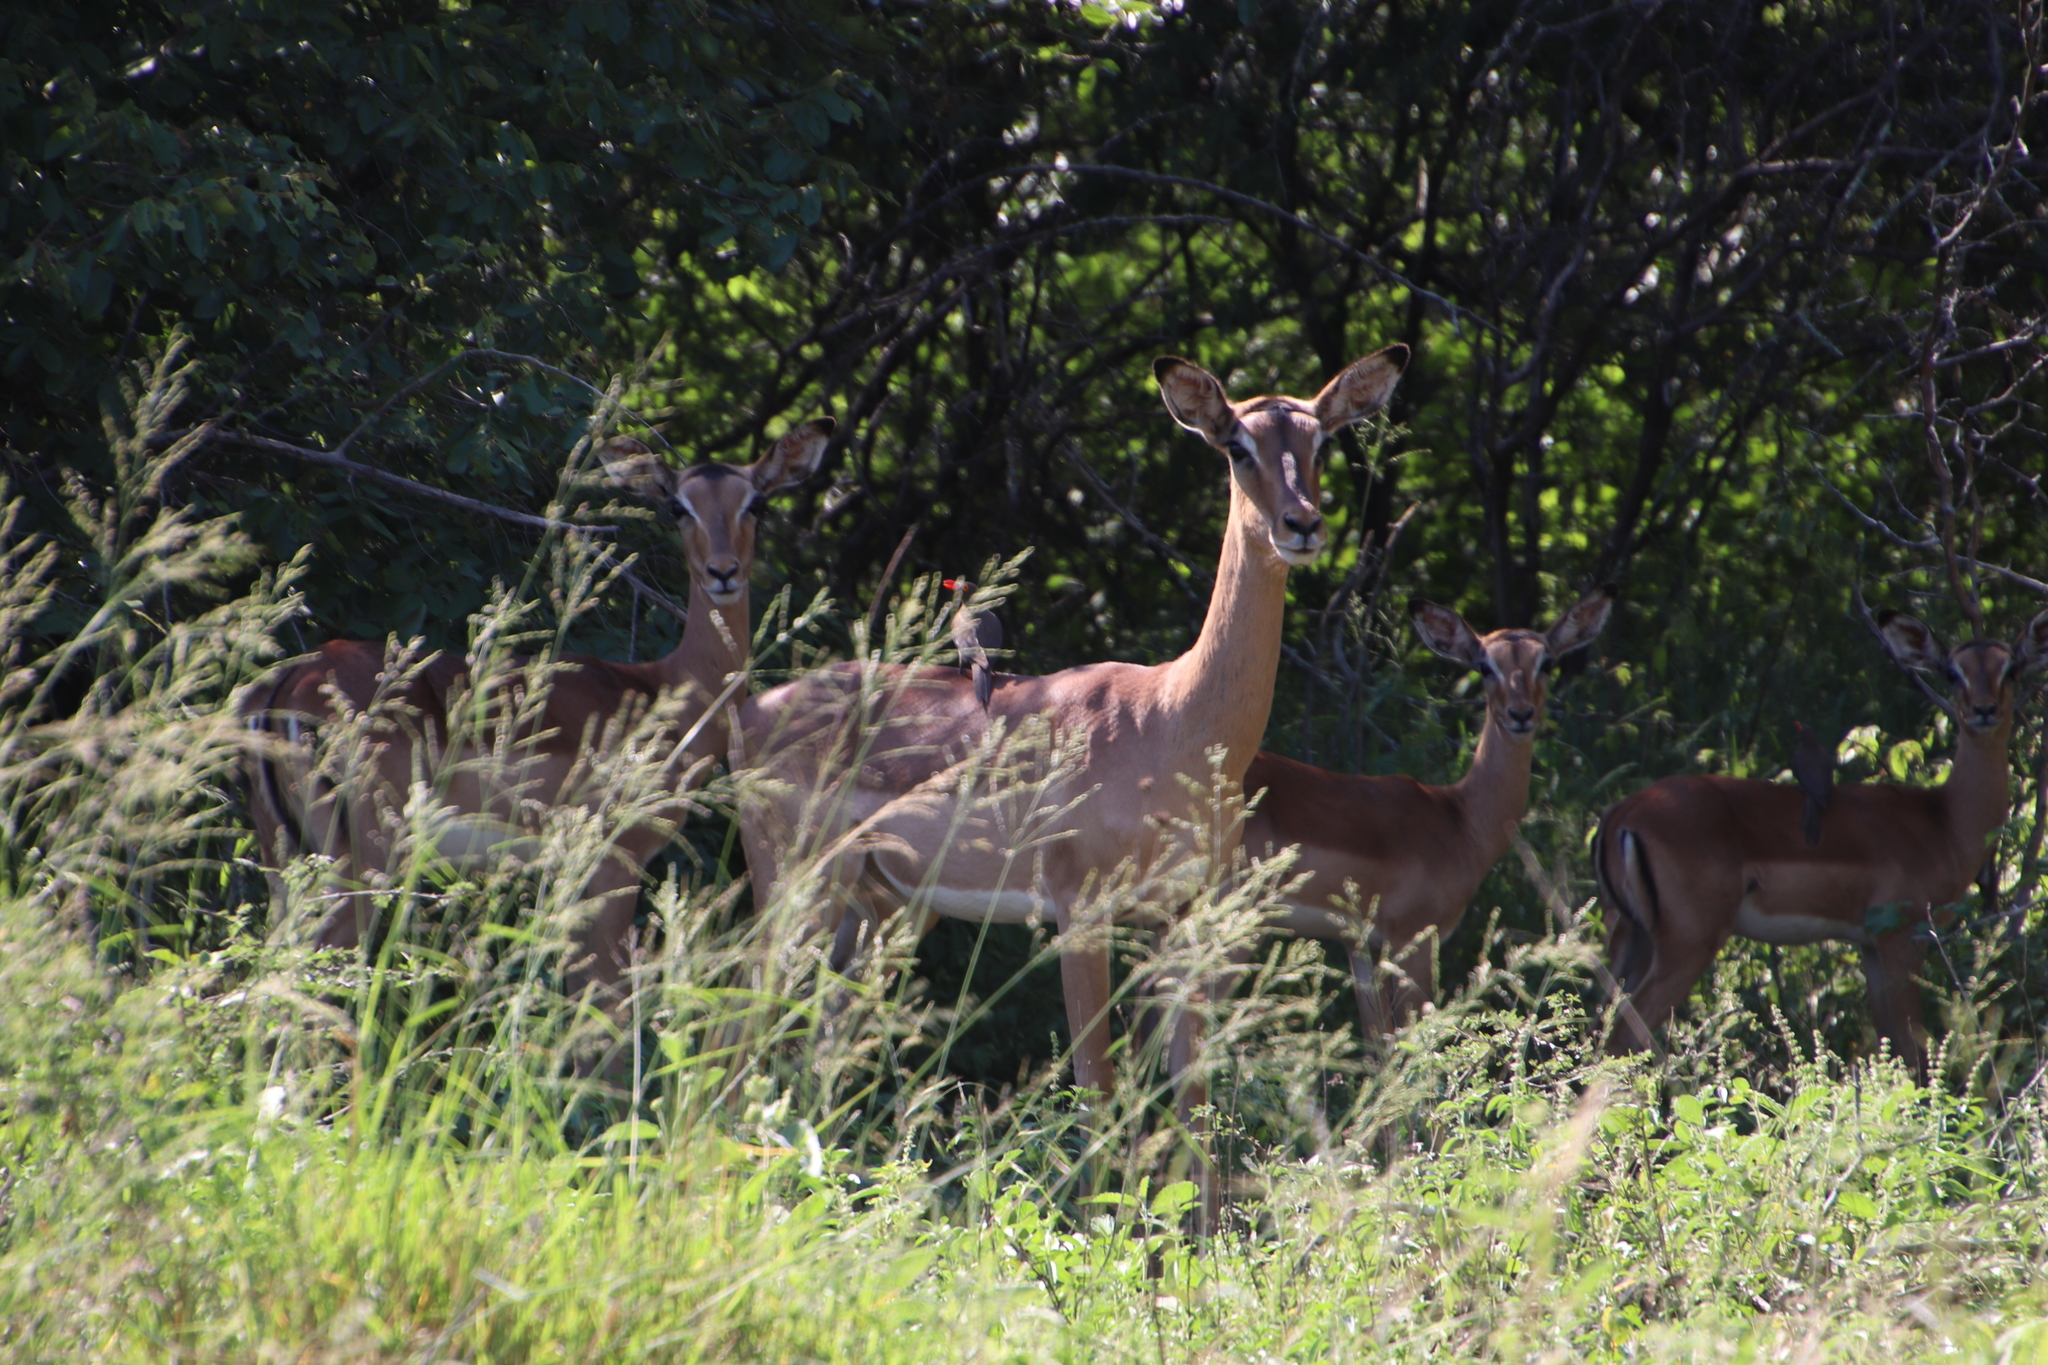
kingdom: Animalia
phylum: Chordata
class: Mammalia
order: Artiodactyla
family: Bovidae
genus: Aepyceros
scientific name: Aepyceros melampus
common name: Impala
